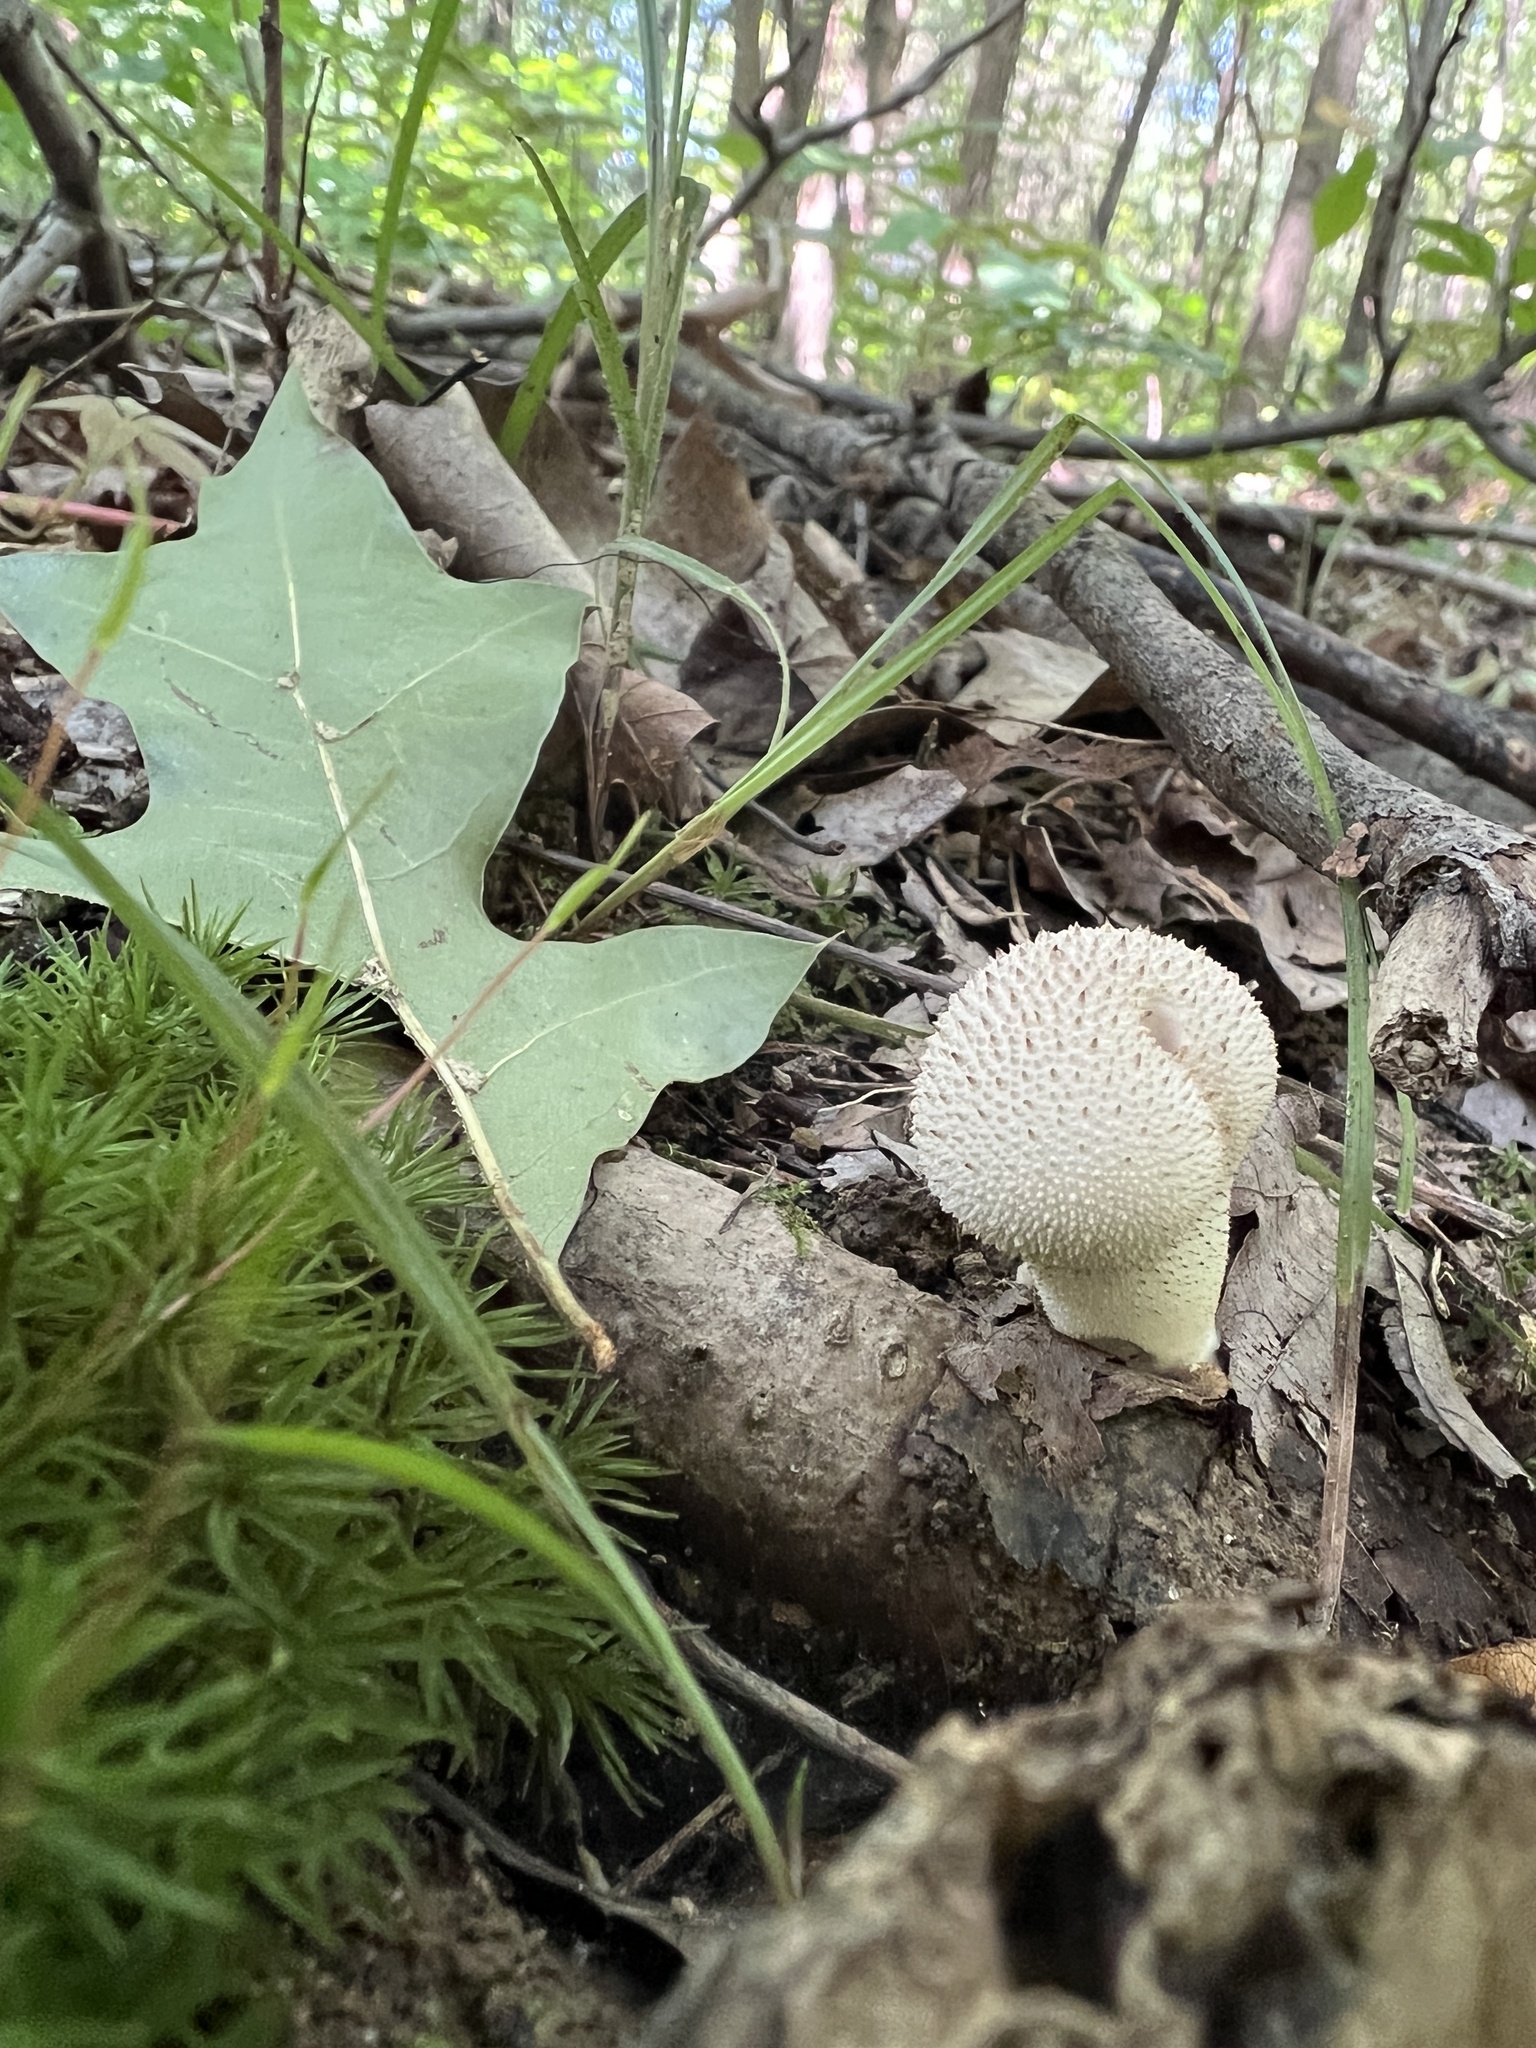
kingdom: Fungi
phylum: Basidiomycota
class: Agaricomycetes
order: Agaricales
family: Lycoperdaceae
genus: Lycoperdon
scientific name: Lycoperdon perlatum
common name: Common puffball
